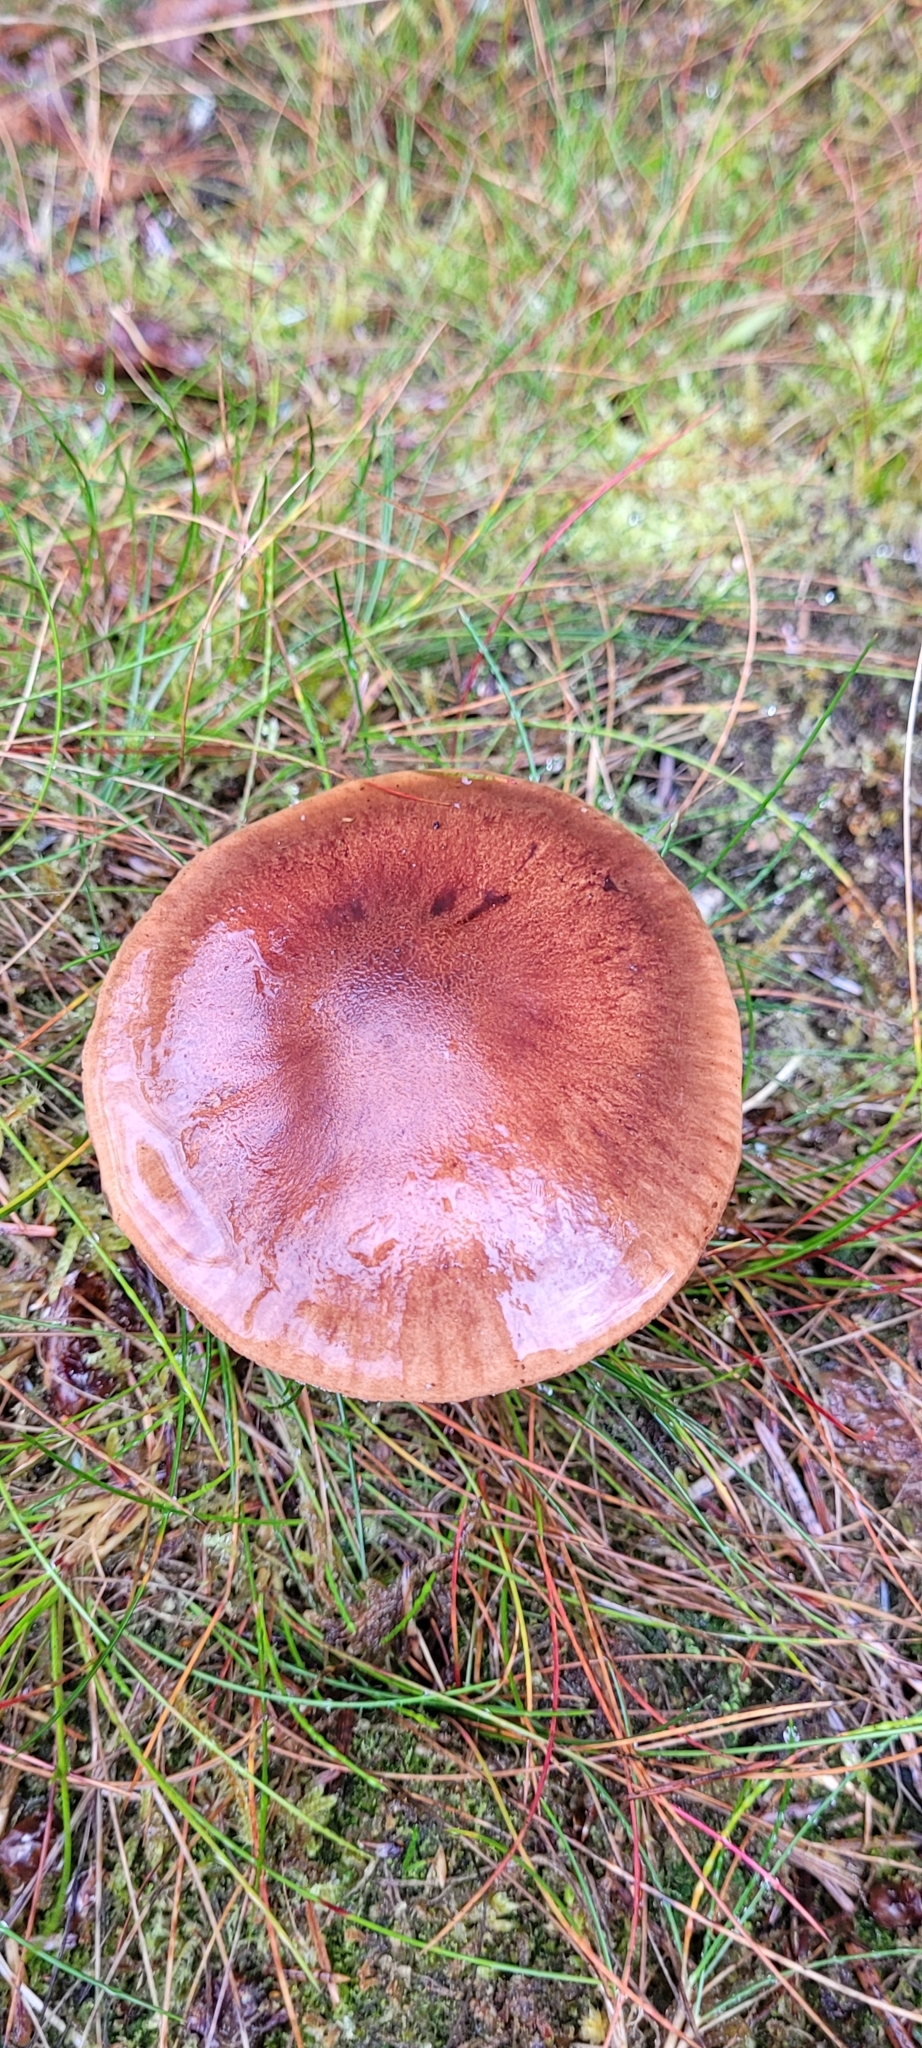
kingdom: Fungi
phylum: Basidiomycota
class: Agaricomycetes
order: Agaricales
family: Tricholomataceae
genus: Tricholoma
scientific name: Tricholoma fulvum
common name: Birch knight
